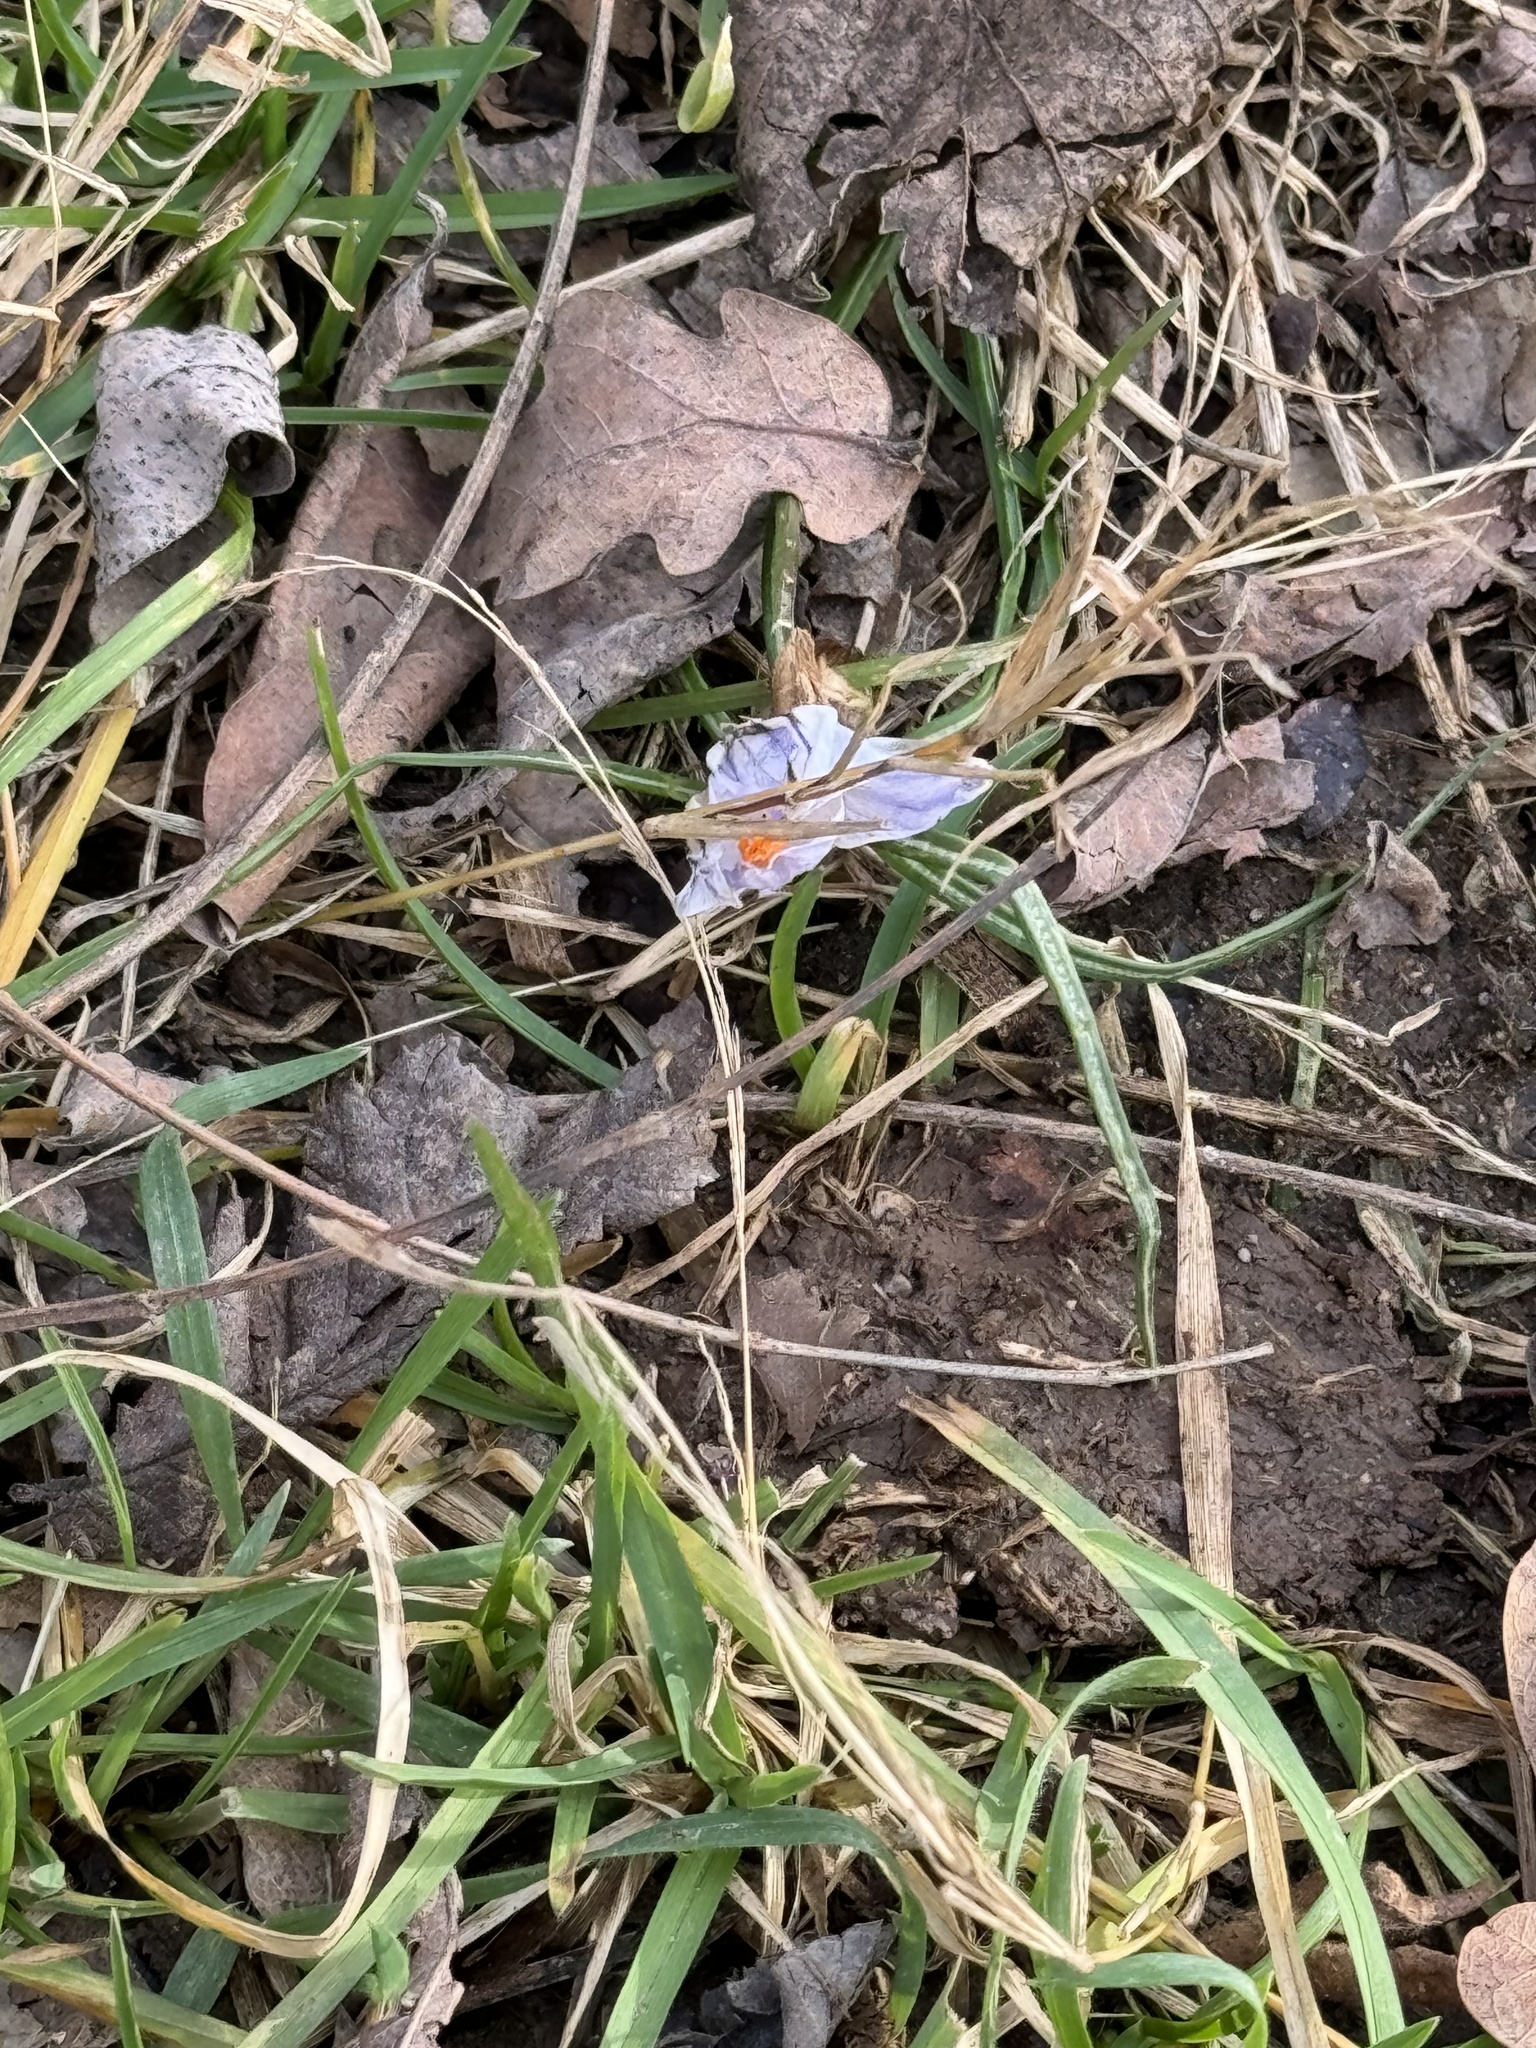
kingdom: Plantae
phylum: Tracheophyta
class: Liliopsida
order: Asparagales
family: Iridaceae
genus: Crocus
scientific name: Crocus biflorus
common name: Silvery crocus
